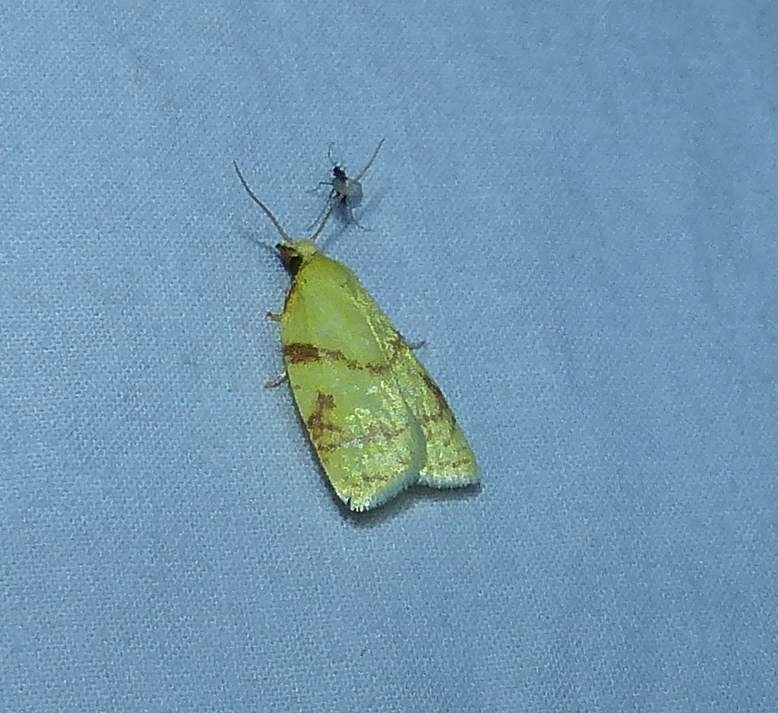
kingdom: Animalia
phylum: Arthropoda
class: Insecta
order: Lepidoptera
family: Tortricidae
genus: Cenopis
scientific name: Cenopis pettitana
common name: Maple-basswood leafroller moth
